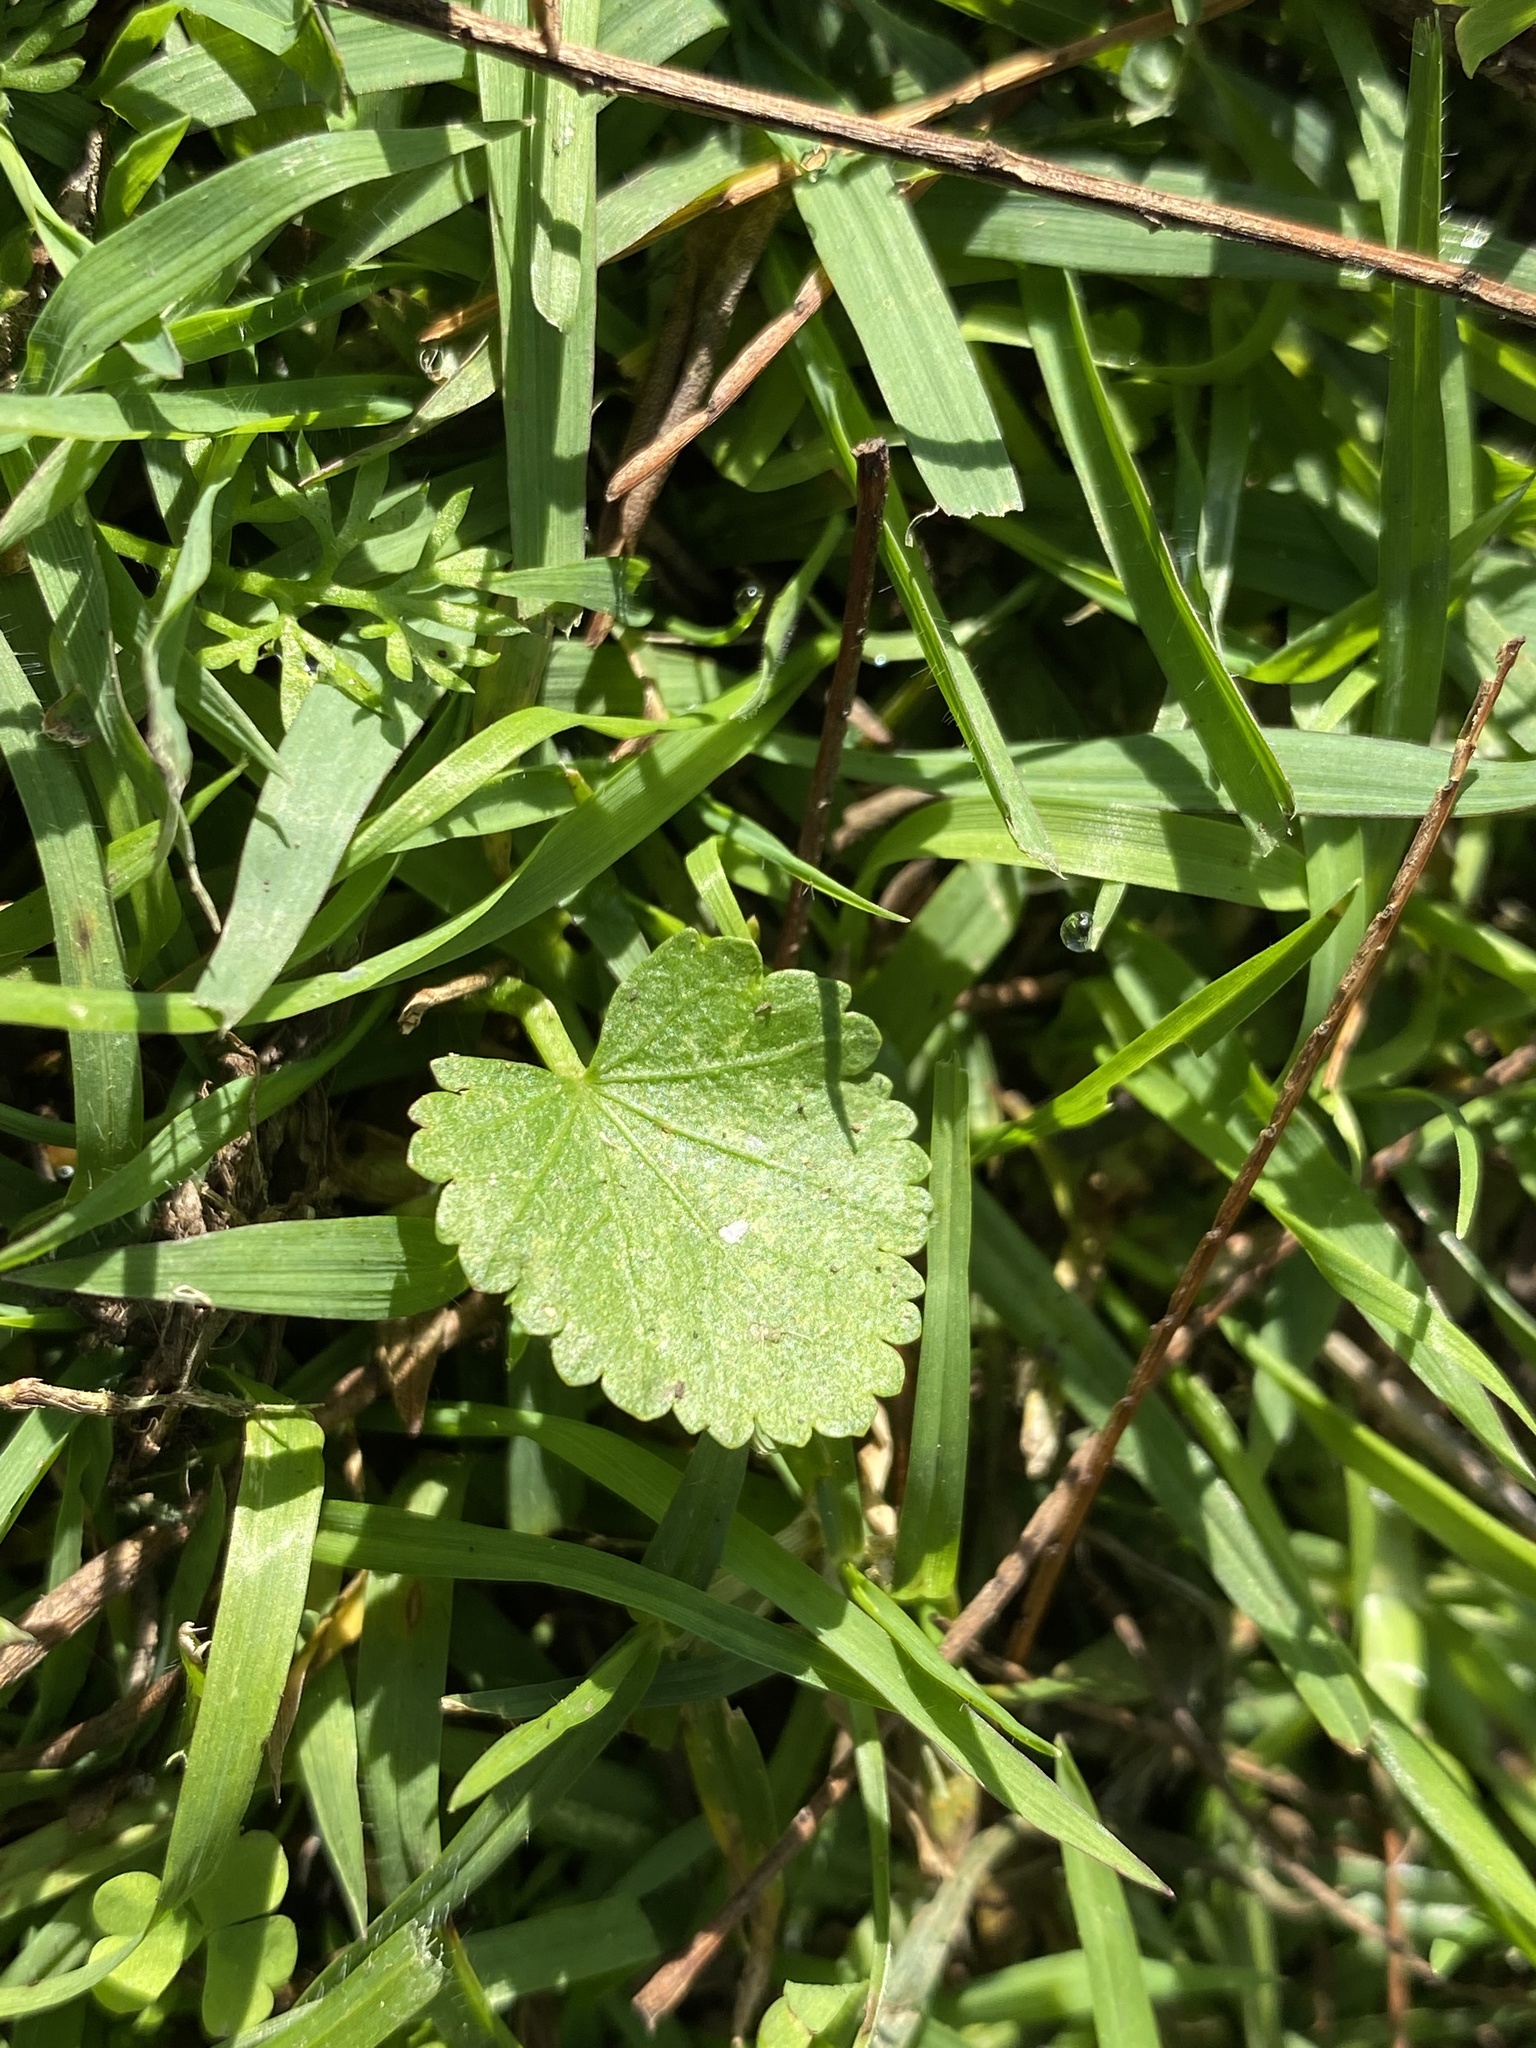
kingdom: Plantae
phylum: Tracheophyta
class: Magnoliopsida
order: Malvales
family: Malvaceae
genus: Modiola
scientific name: Modiola caroliniana
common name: Carolina bristlemallow
